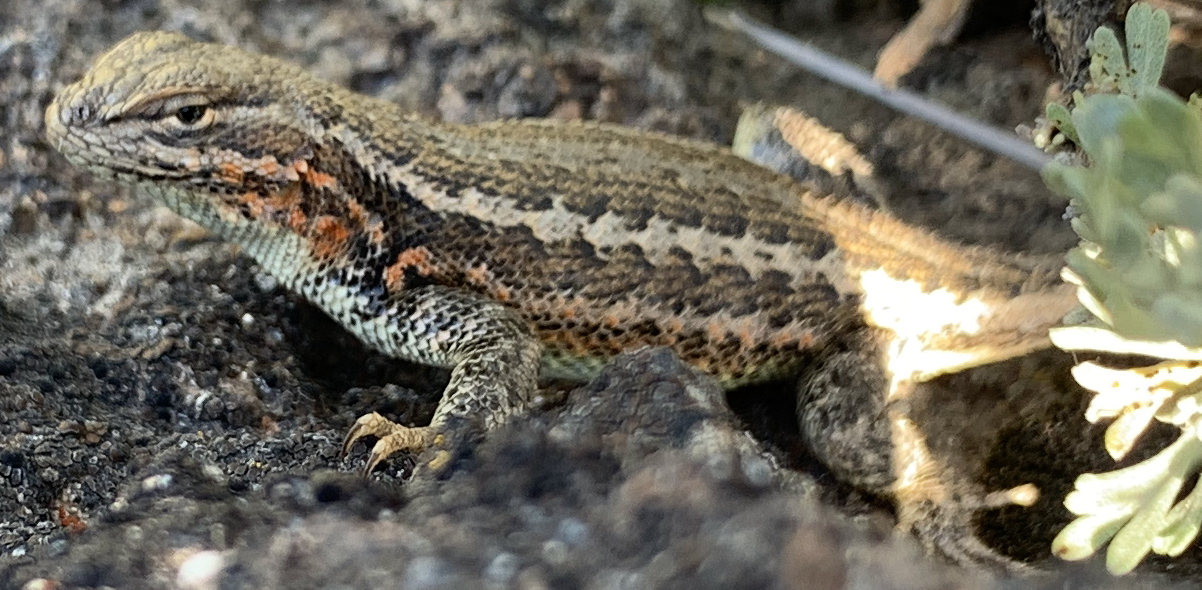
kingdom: Animalia
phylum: Chordata
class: Squamata
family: Phrynosomatidae
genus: Sceloporus
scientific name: Sceloporus graciosus
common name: Sagebrush lizard
